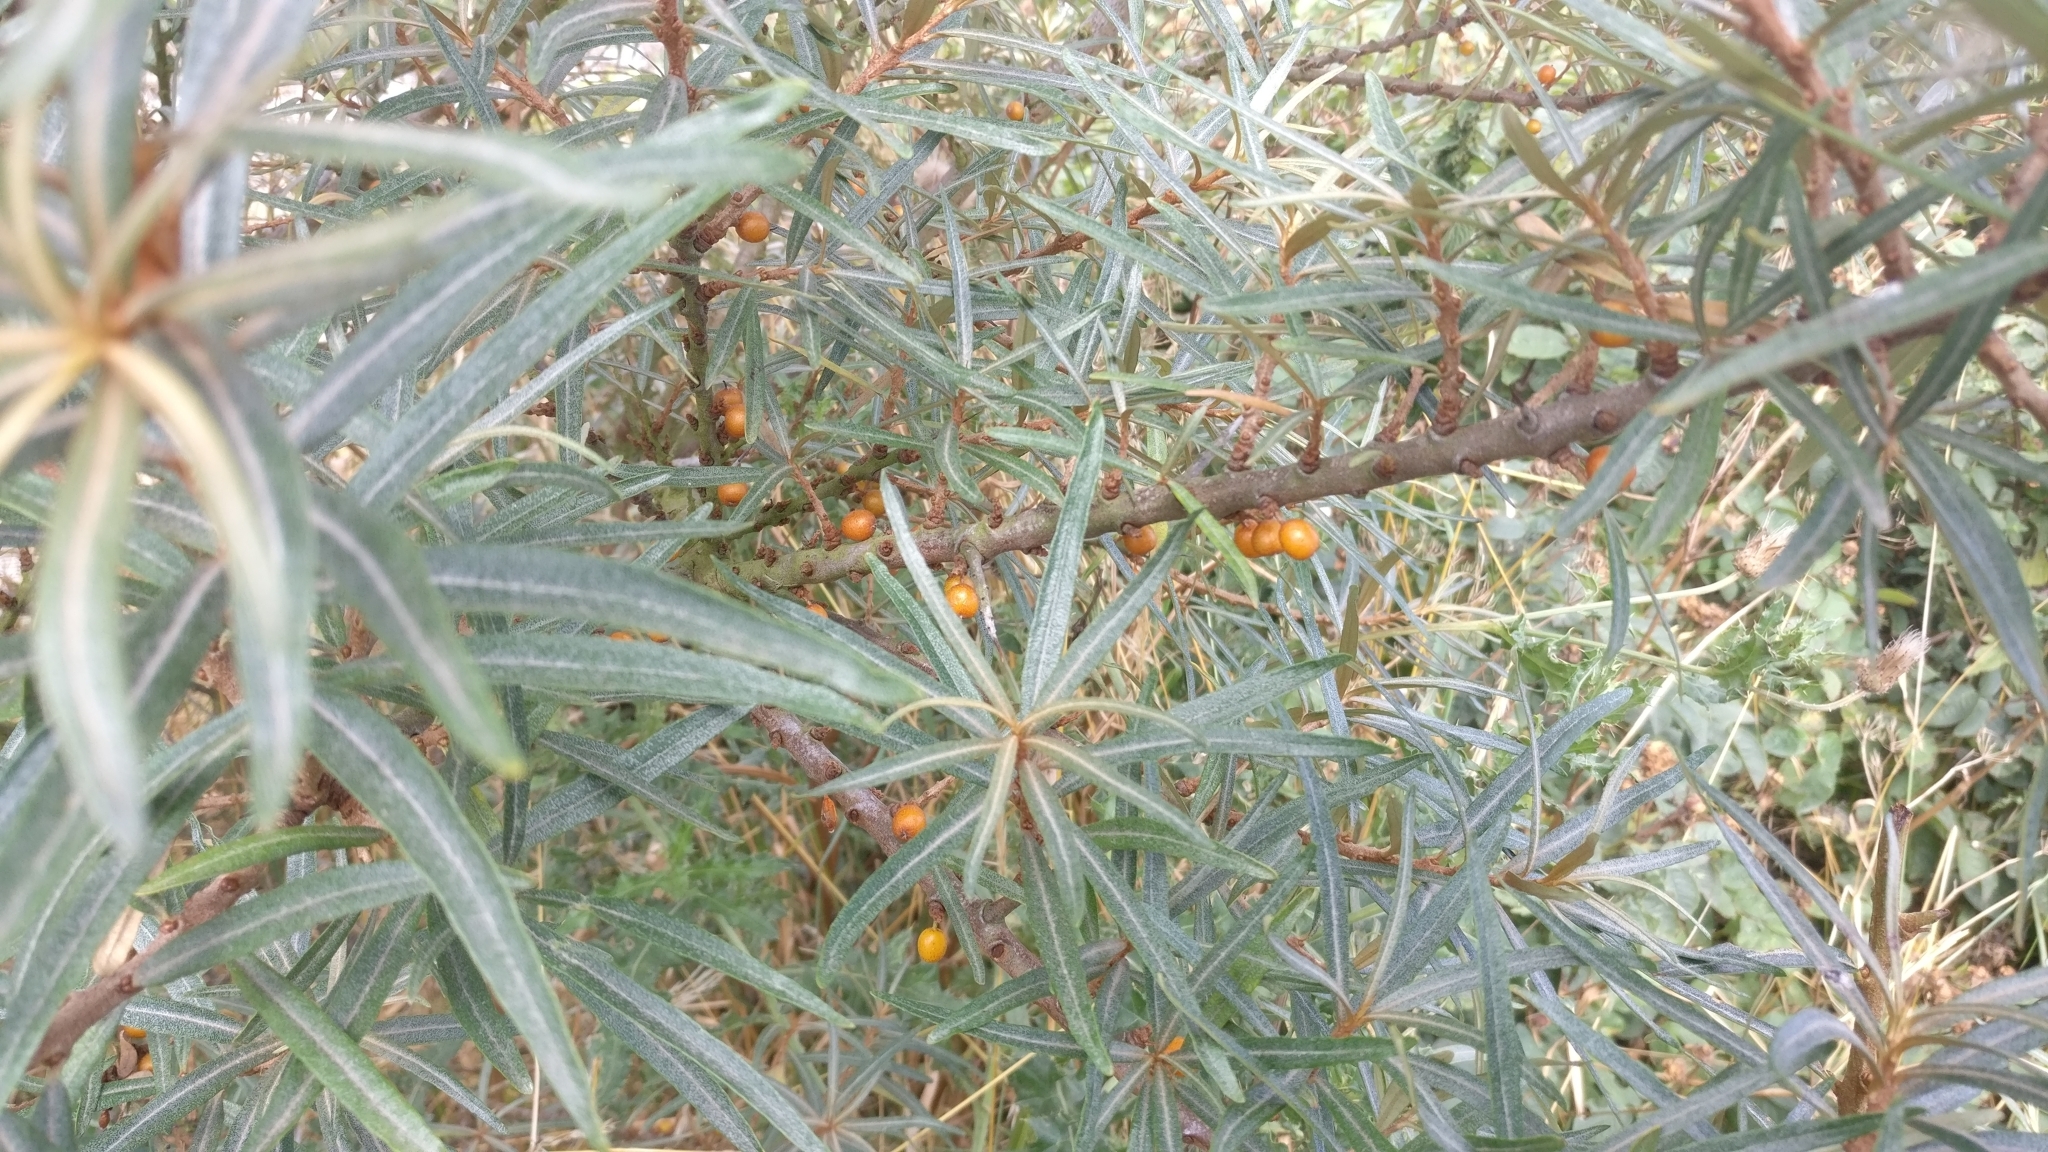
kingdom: Plantae
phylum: Tracheophyta
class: Magnoliopsida
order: Rosales
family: Elaeagnaceae
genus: Hippophae
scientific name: Hippophae rhamnoides
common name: Sea-buckthorn
